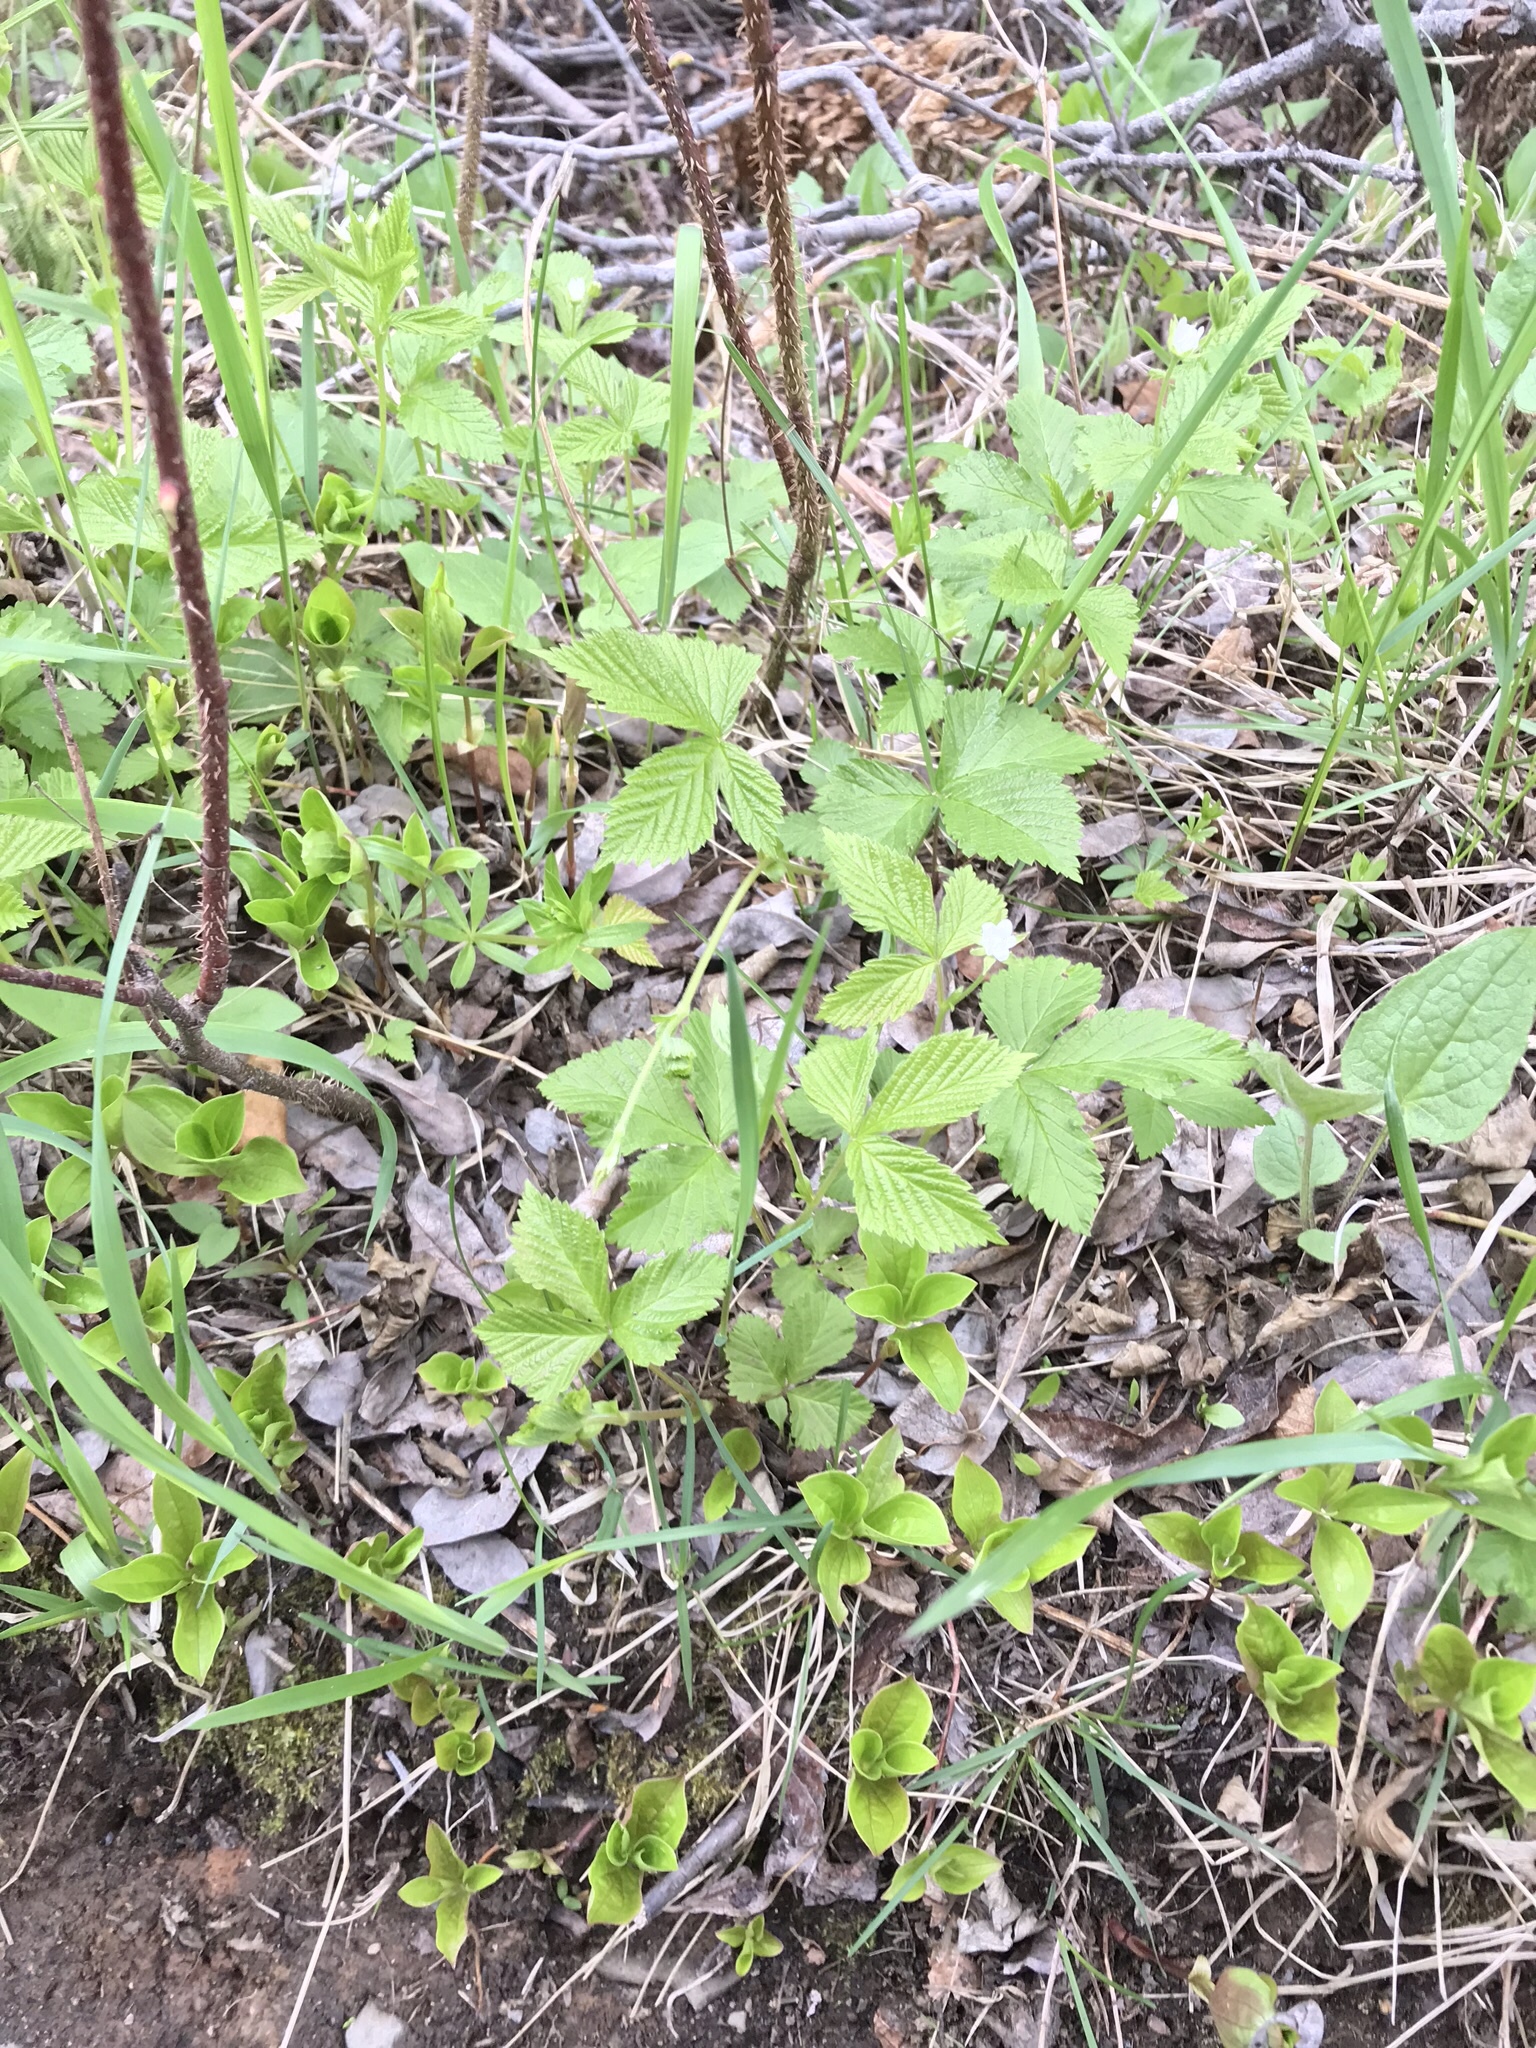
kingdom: Plantae
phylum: Tracheophyta
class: Magnoliopsida
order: Rosales
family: Rosaceae
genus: Rubus
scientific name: Rubus pubescens
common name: Dwarf raspberry
